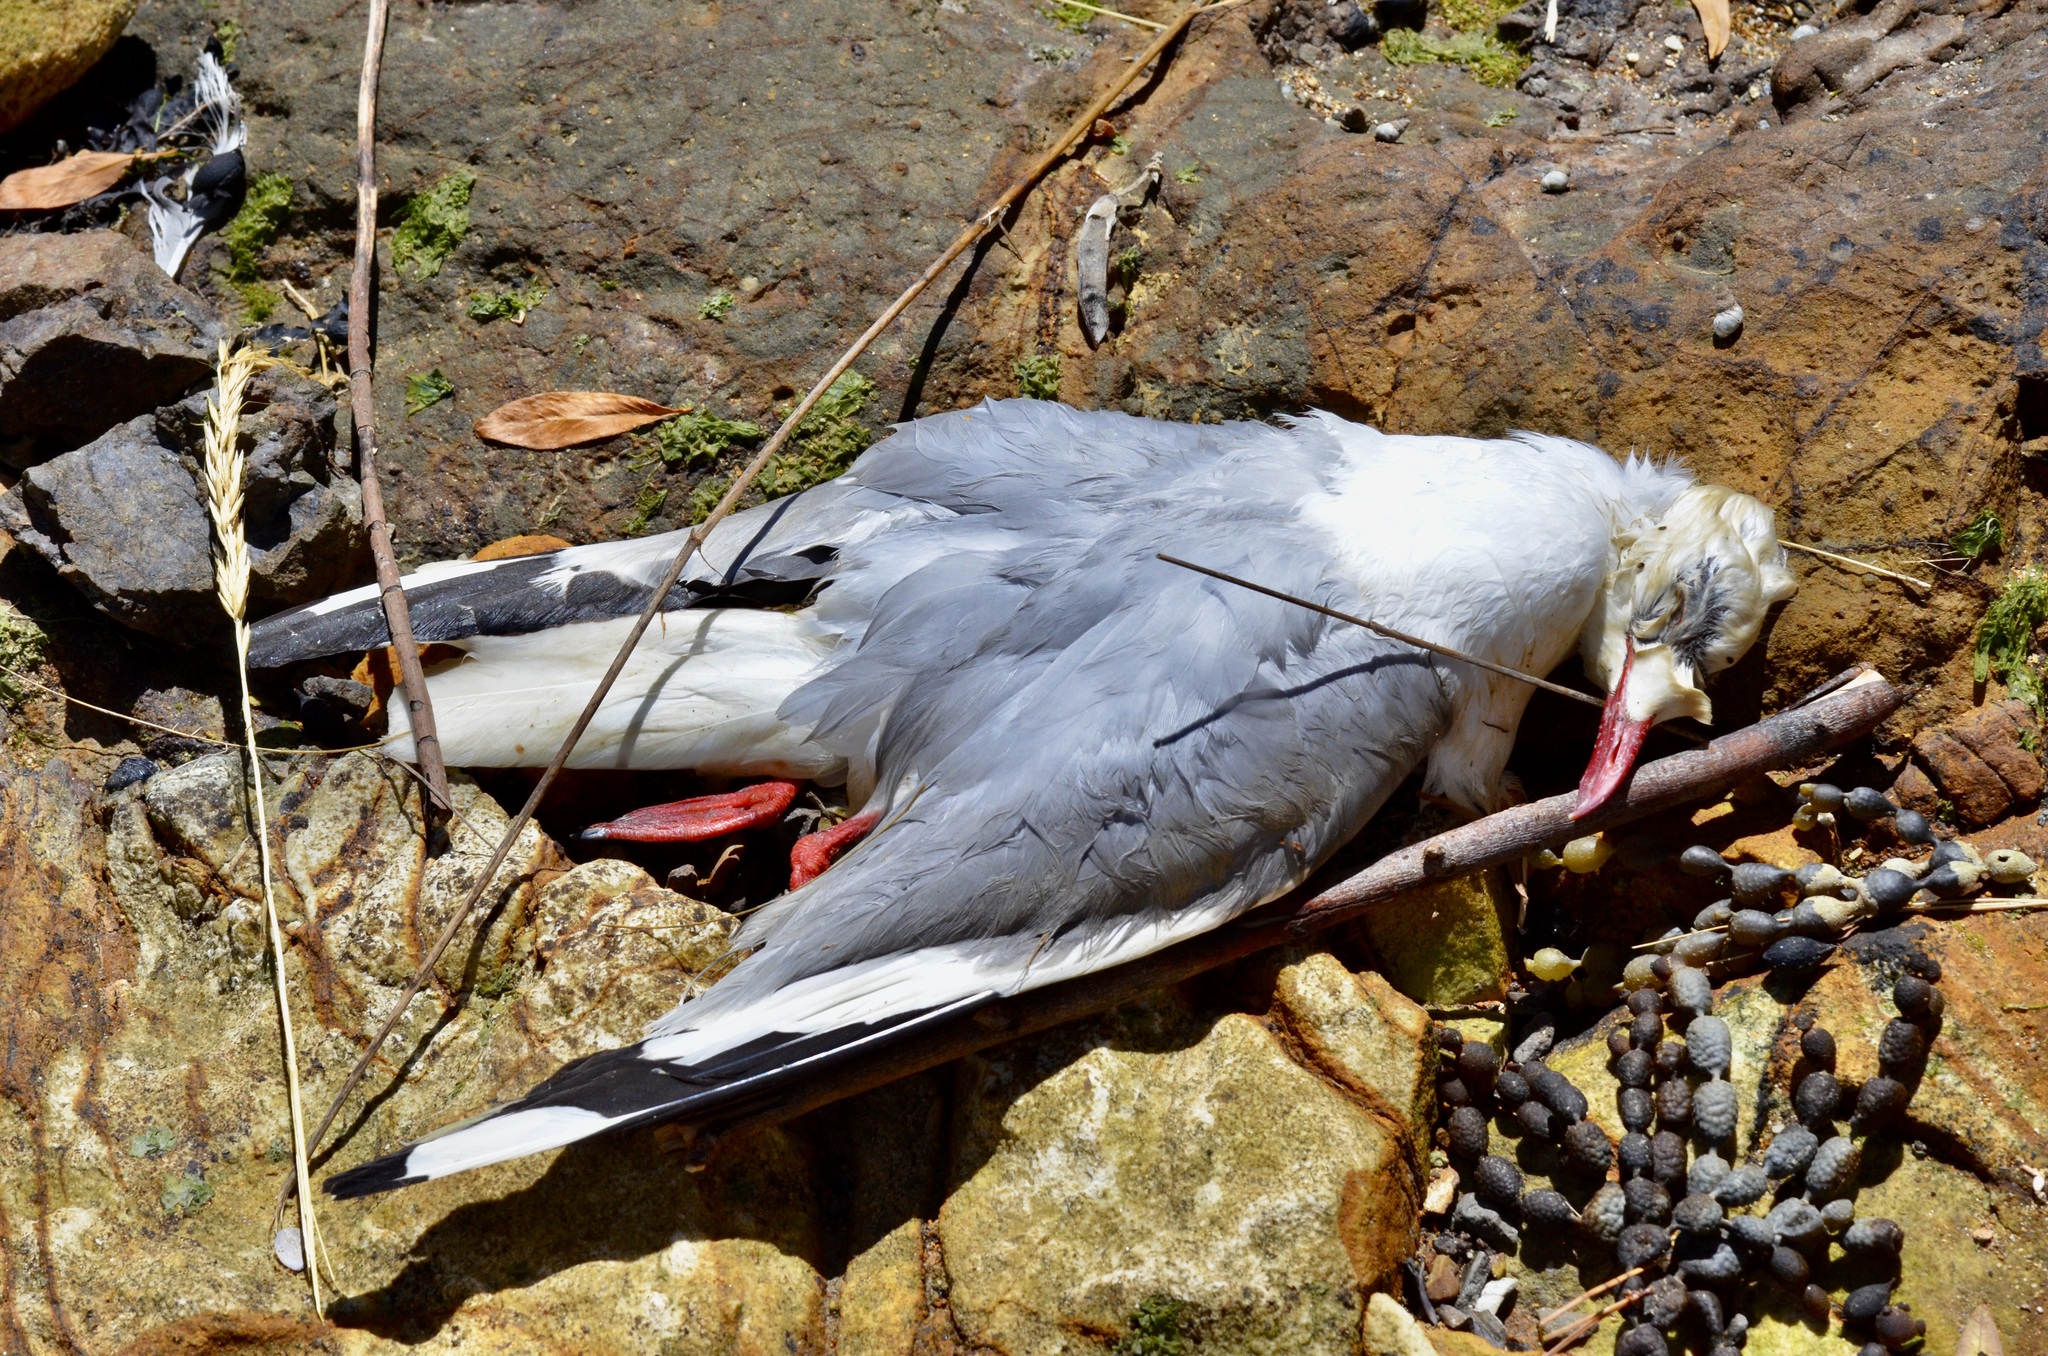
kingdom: Animalia
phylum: Chordata
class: Aves
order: Charadriiformes
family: Laridae
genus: Chroicocephalus
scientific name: Chroicocephalus novaehollandiae
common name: Silver gull
